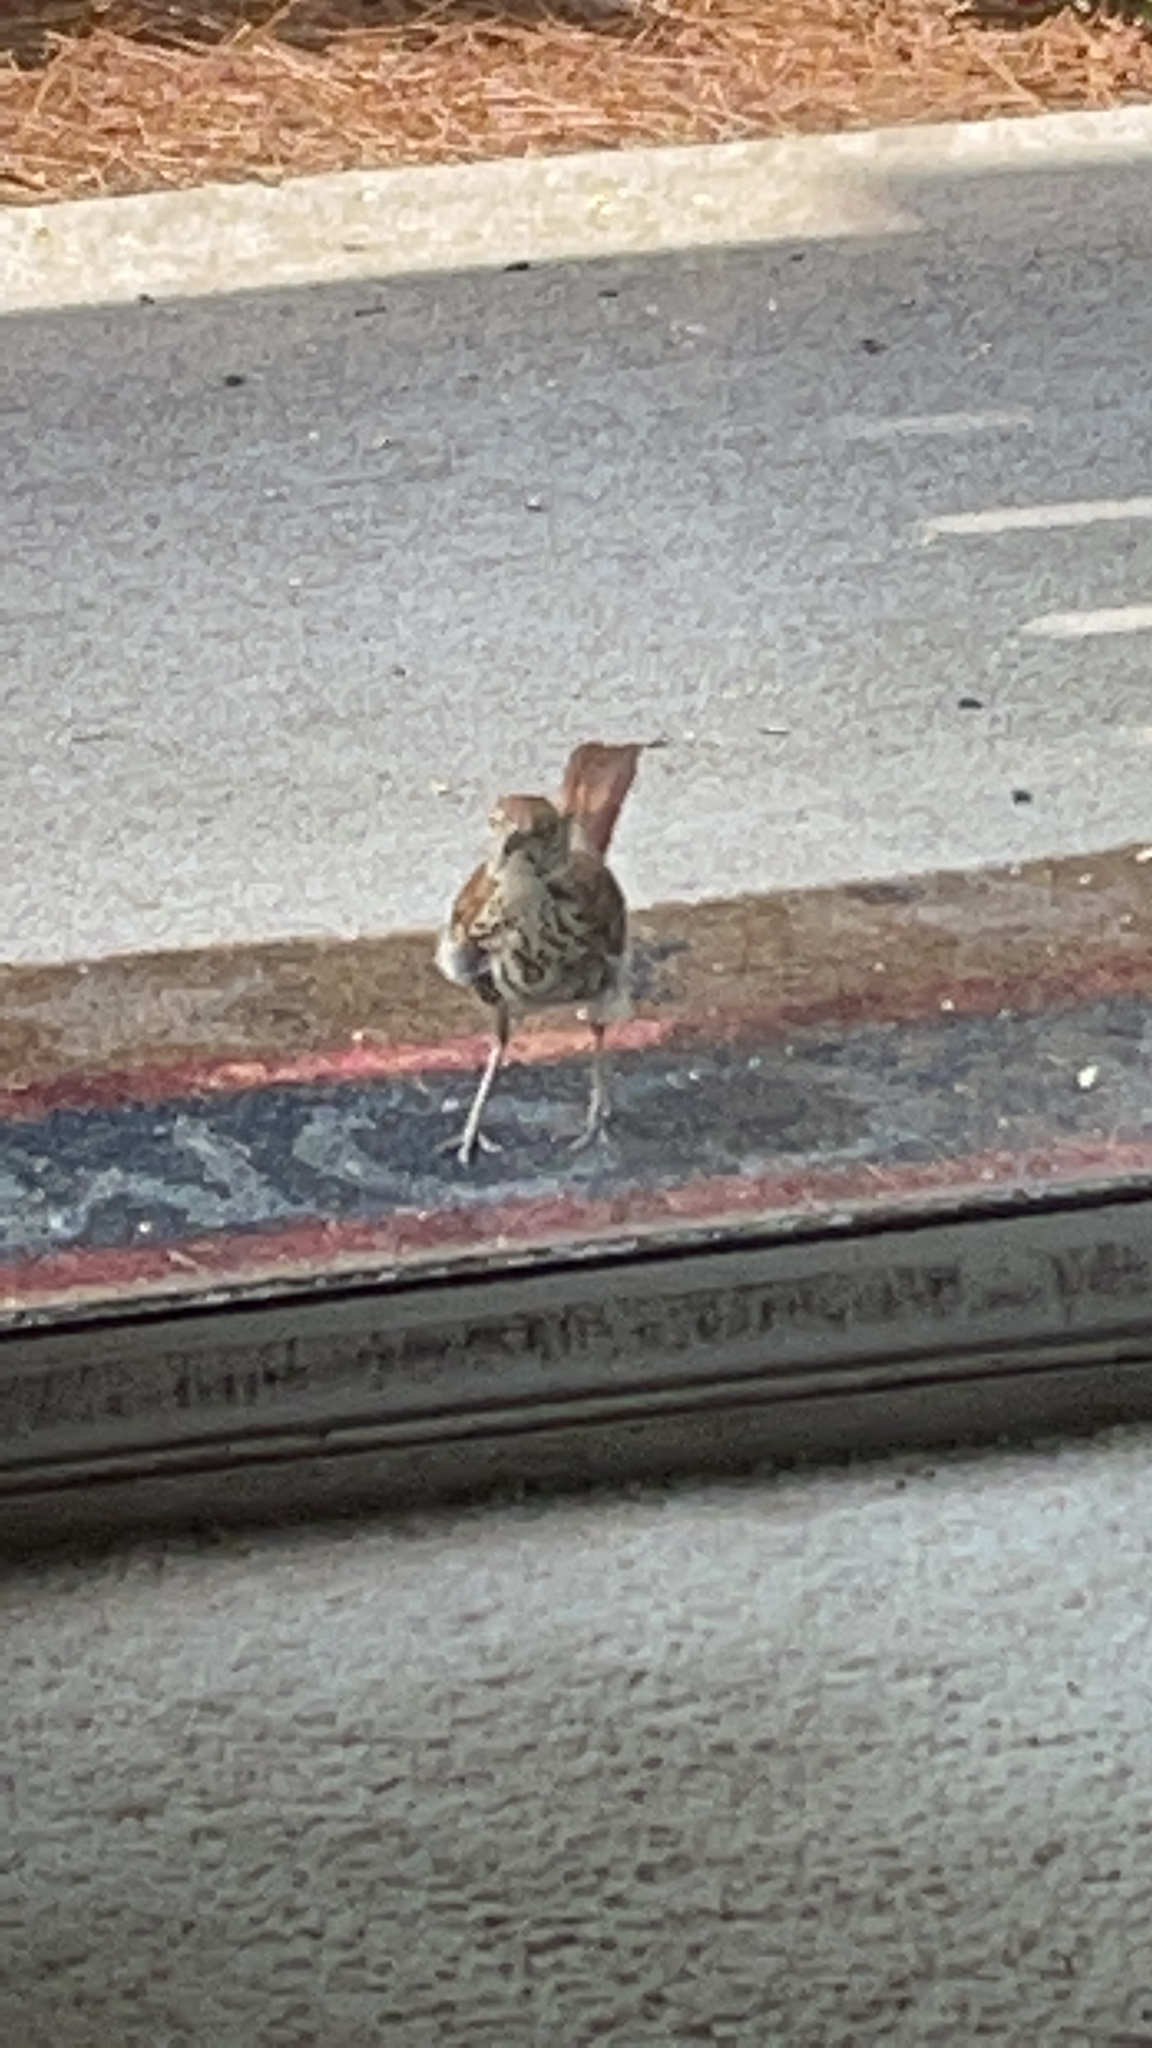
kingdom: Animalia
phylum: Chordata
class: Aves
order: Passeriformes
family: Mimidae
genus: Toxostoma
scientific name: Toxostoma rufum
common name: Brown thrasher
